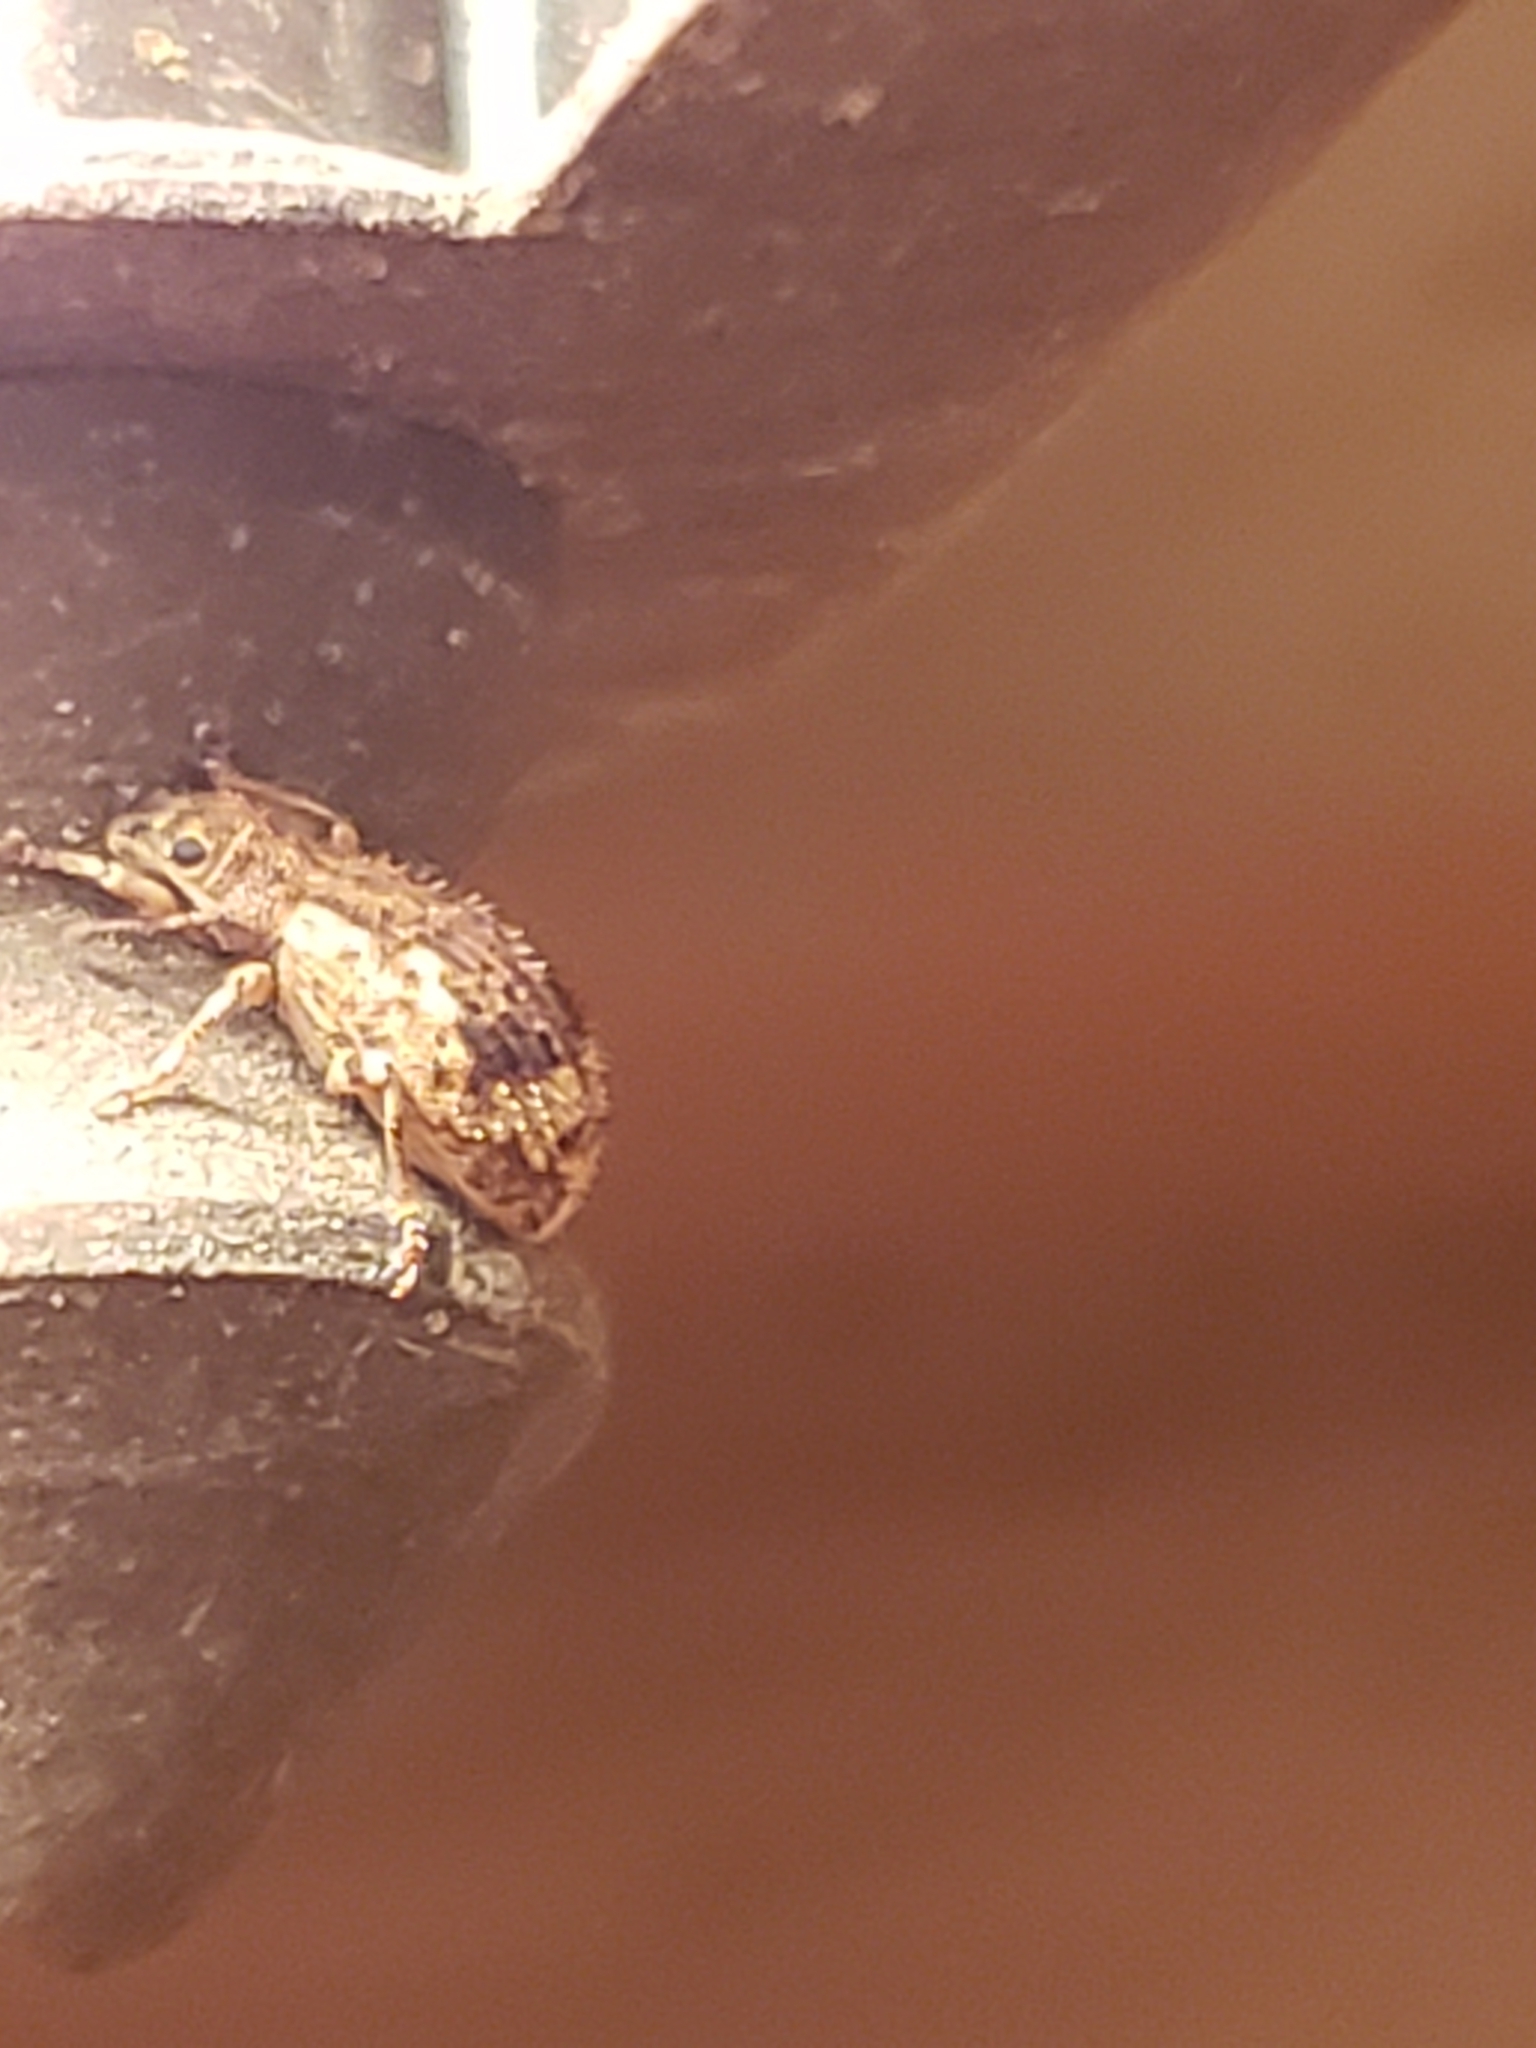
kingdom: Animalia
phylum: Arthropoda
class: Insecta
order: Coleoptera
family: Curculionidae
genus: Pseudoedophrys
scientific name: Pseudoedophrys hilleri
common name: Weevil
